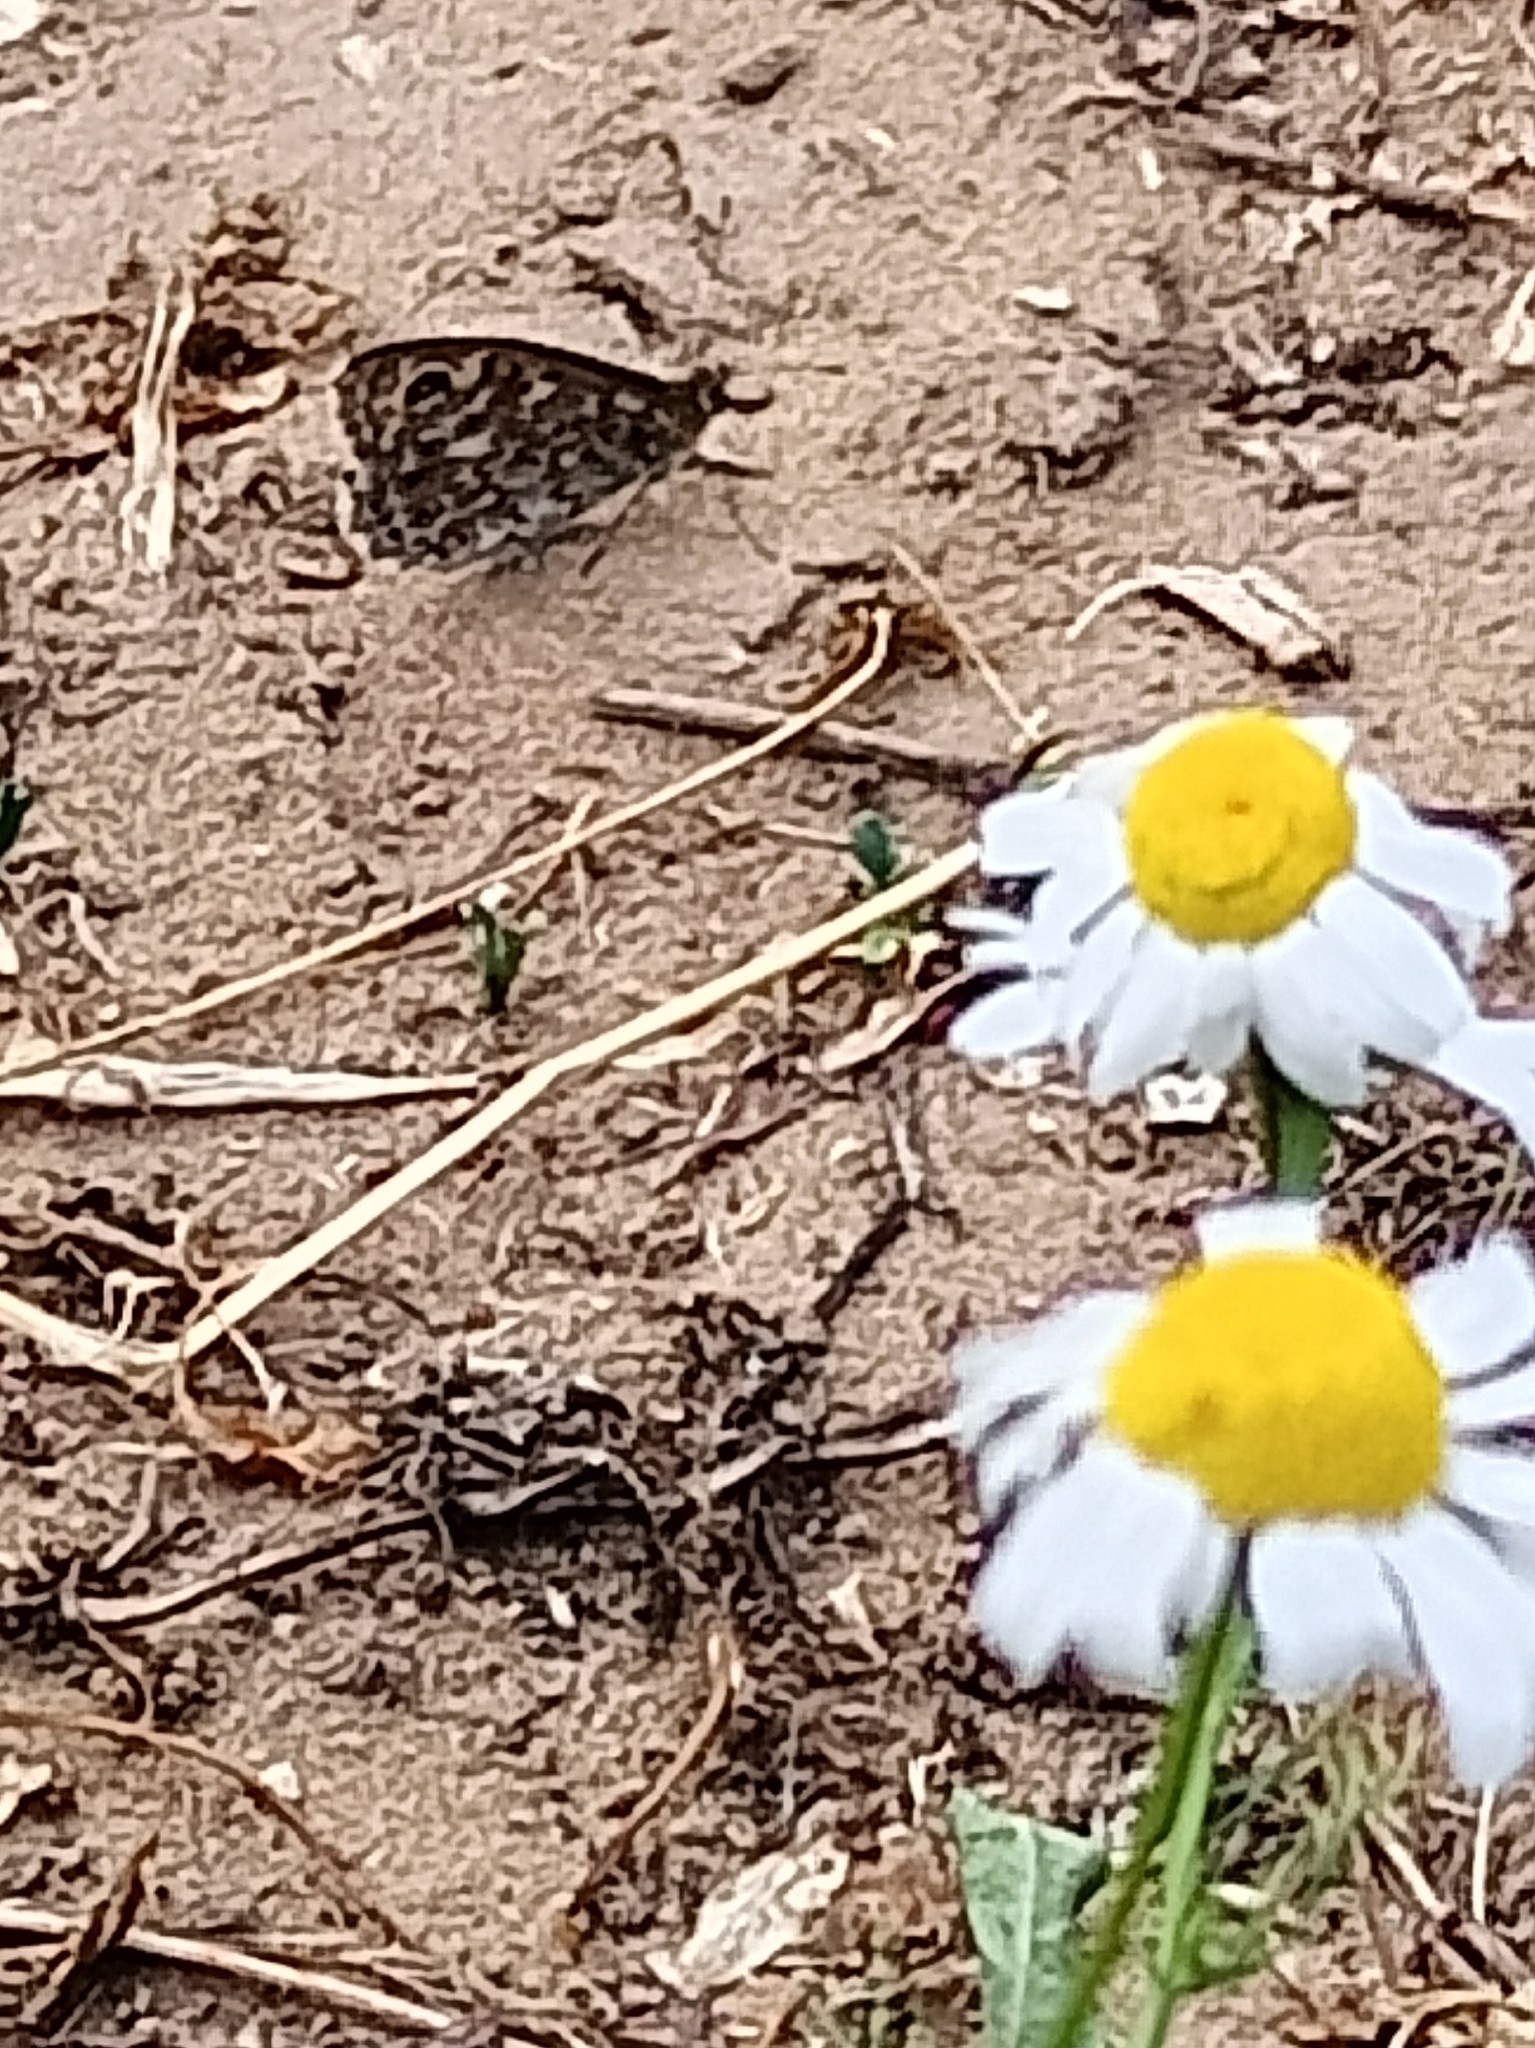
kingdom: Animalia
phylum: Arthropoda
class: Insecta
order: Lepidoptera
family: Nymphalidae
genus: Pararge
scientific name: Pararge Lasiommata megera
